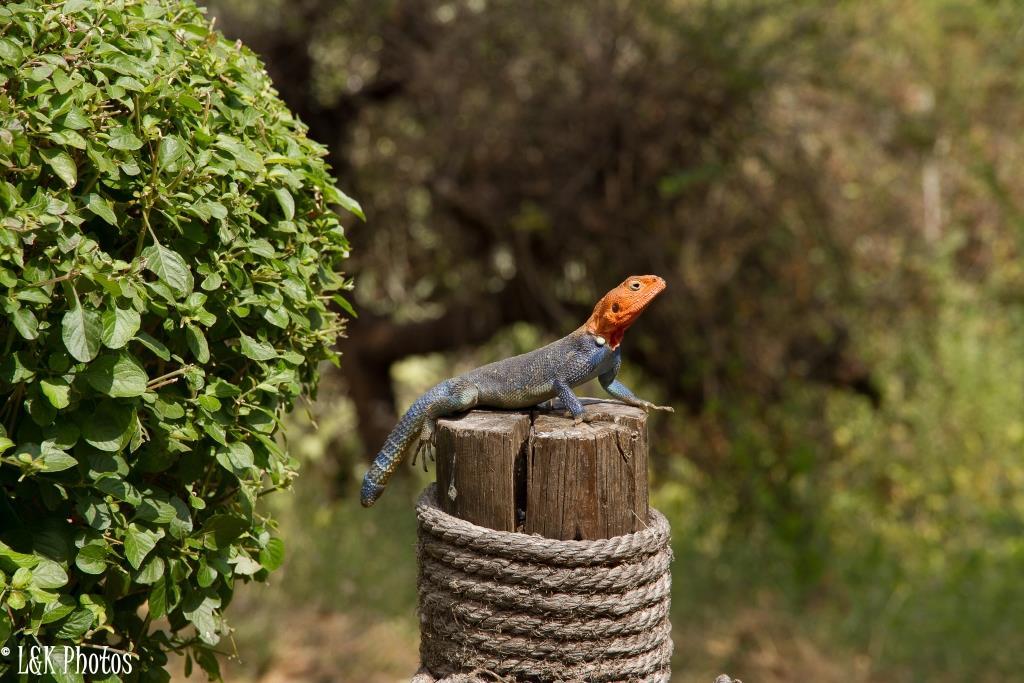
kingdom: Animalia
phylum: Chordata
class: Squamata
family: Agamidae
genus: Agama
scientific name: Agama dodomae
